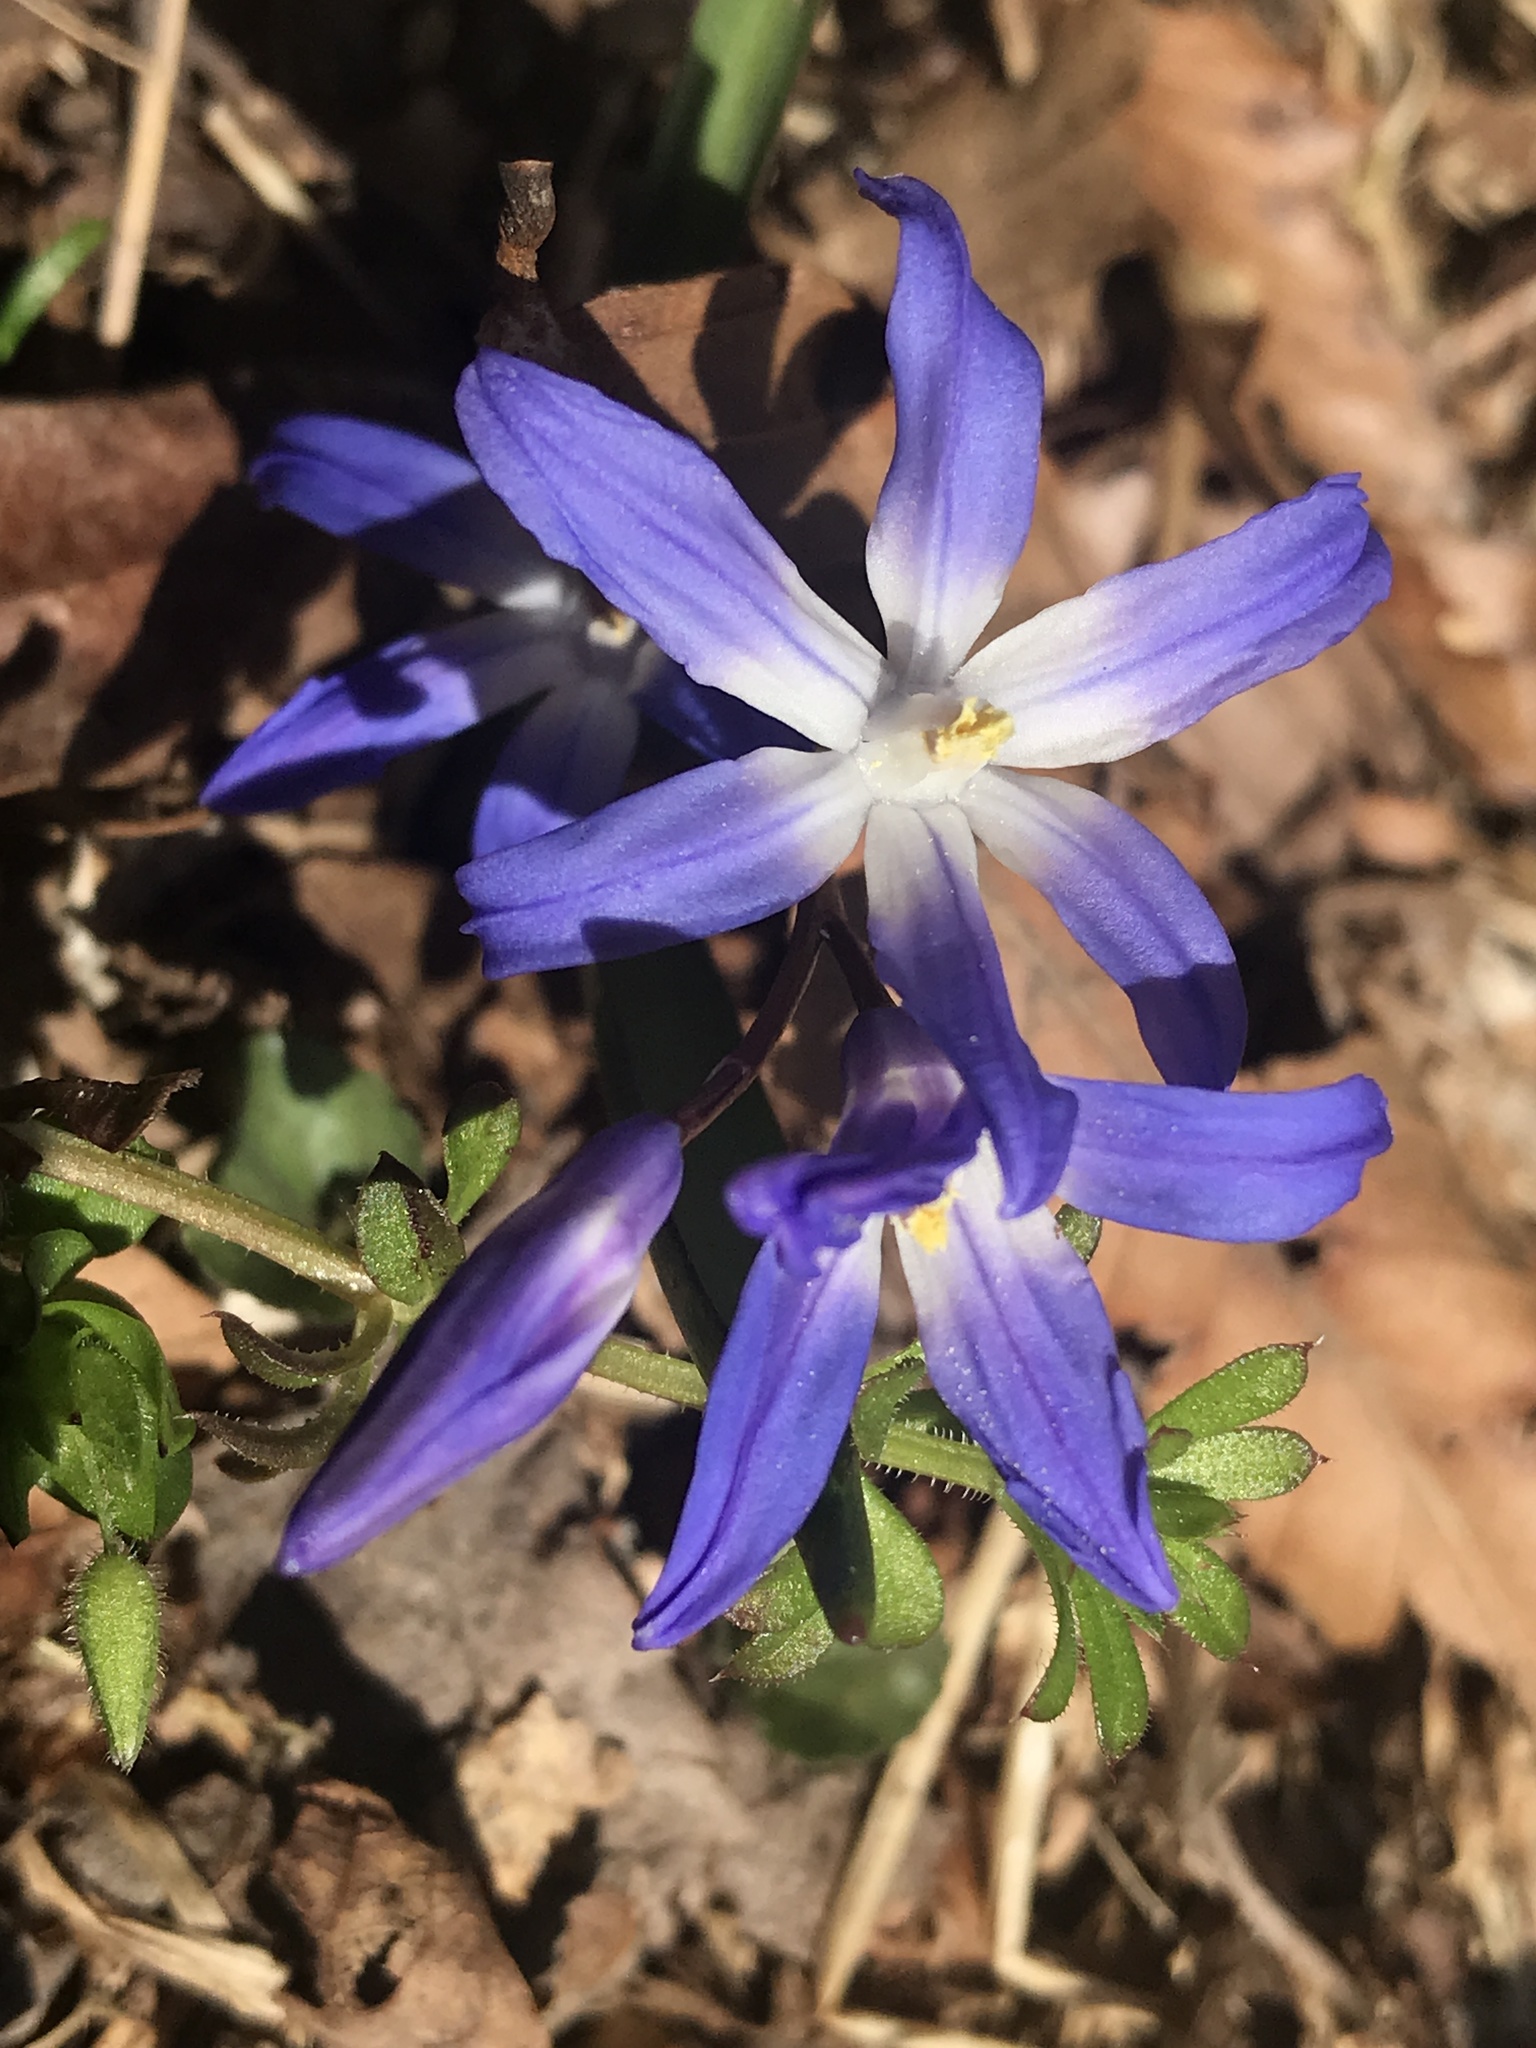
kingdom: Plantae
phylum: Tracheophyta
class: Liliopsida
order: Asparagales
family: Asparagaceae
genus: Scilla
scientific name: Scilla luciliae
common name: Boissier's glory-of-the-snow
